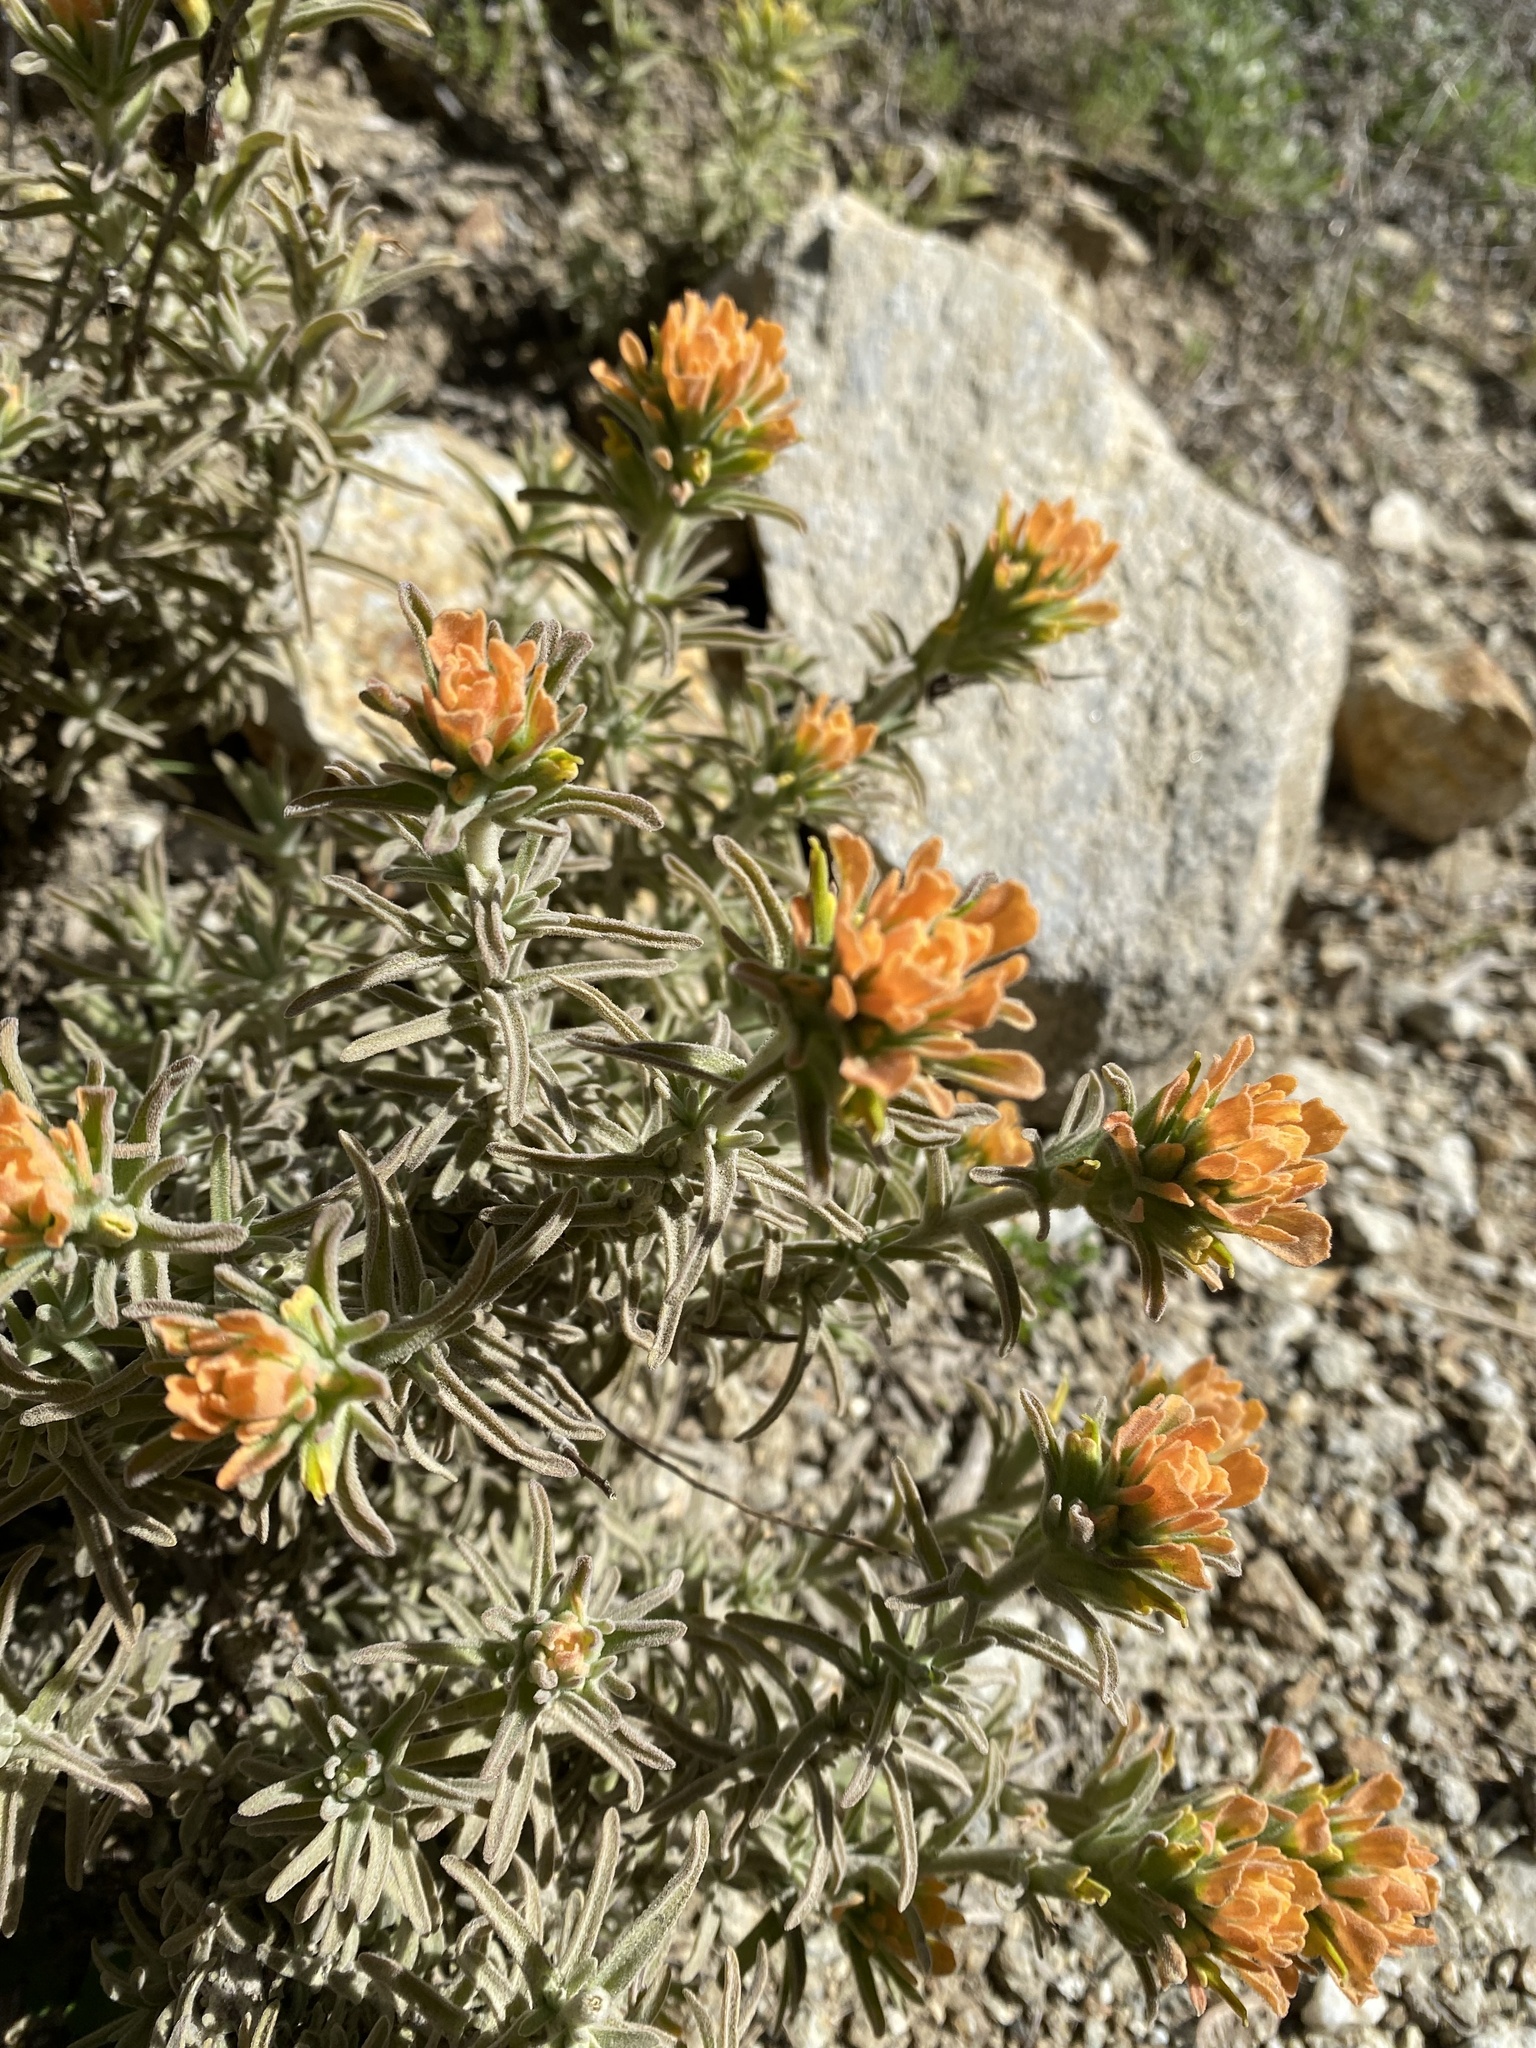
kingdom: Plantae
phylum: Tracheophyta
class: Magnoliopsida
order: Lamiales
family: Orobanchaceae
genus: Castilleja
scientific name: Castilleja foliolosa
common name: Woolly indian paintbrush
